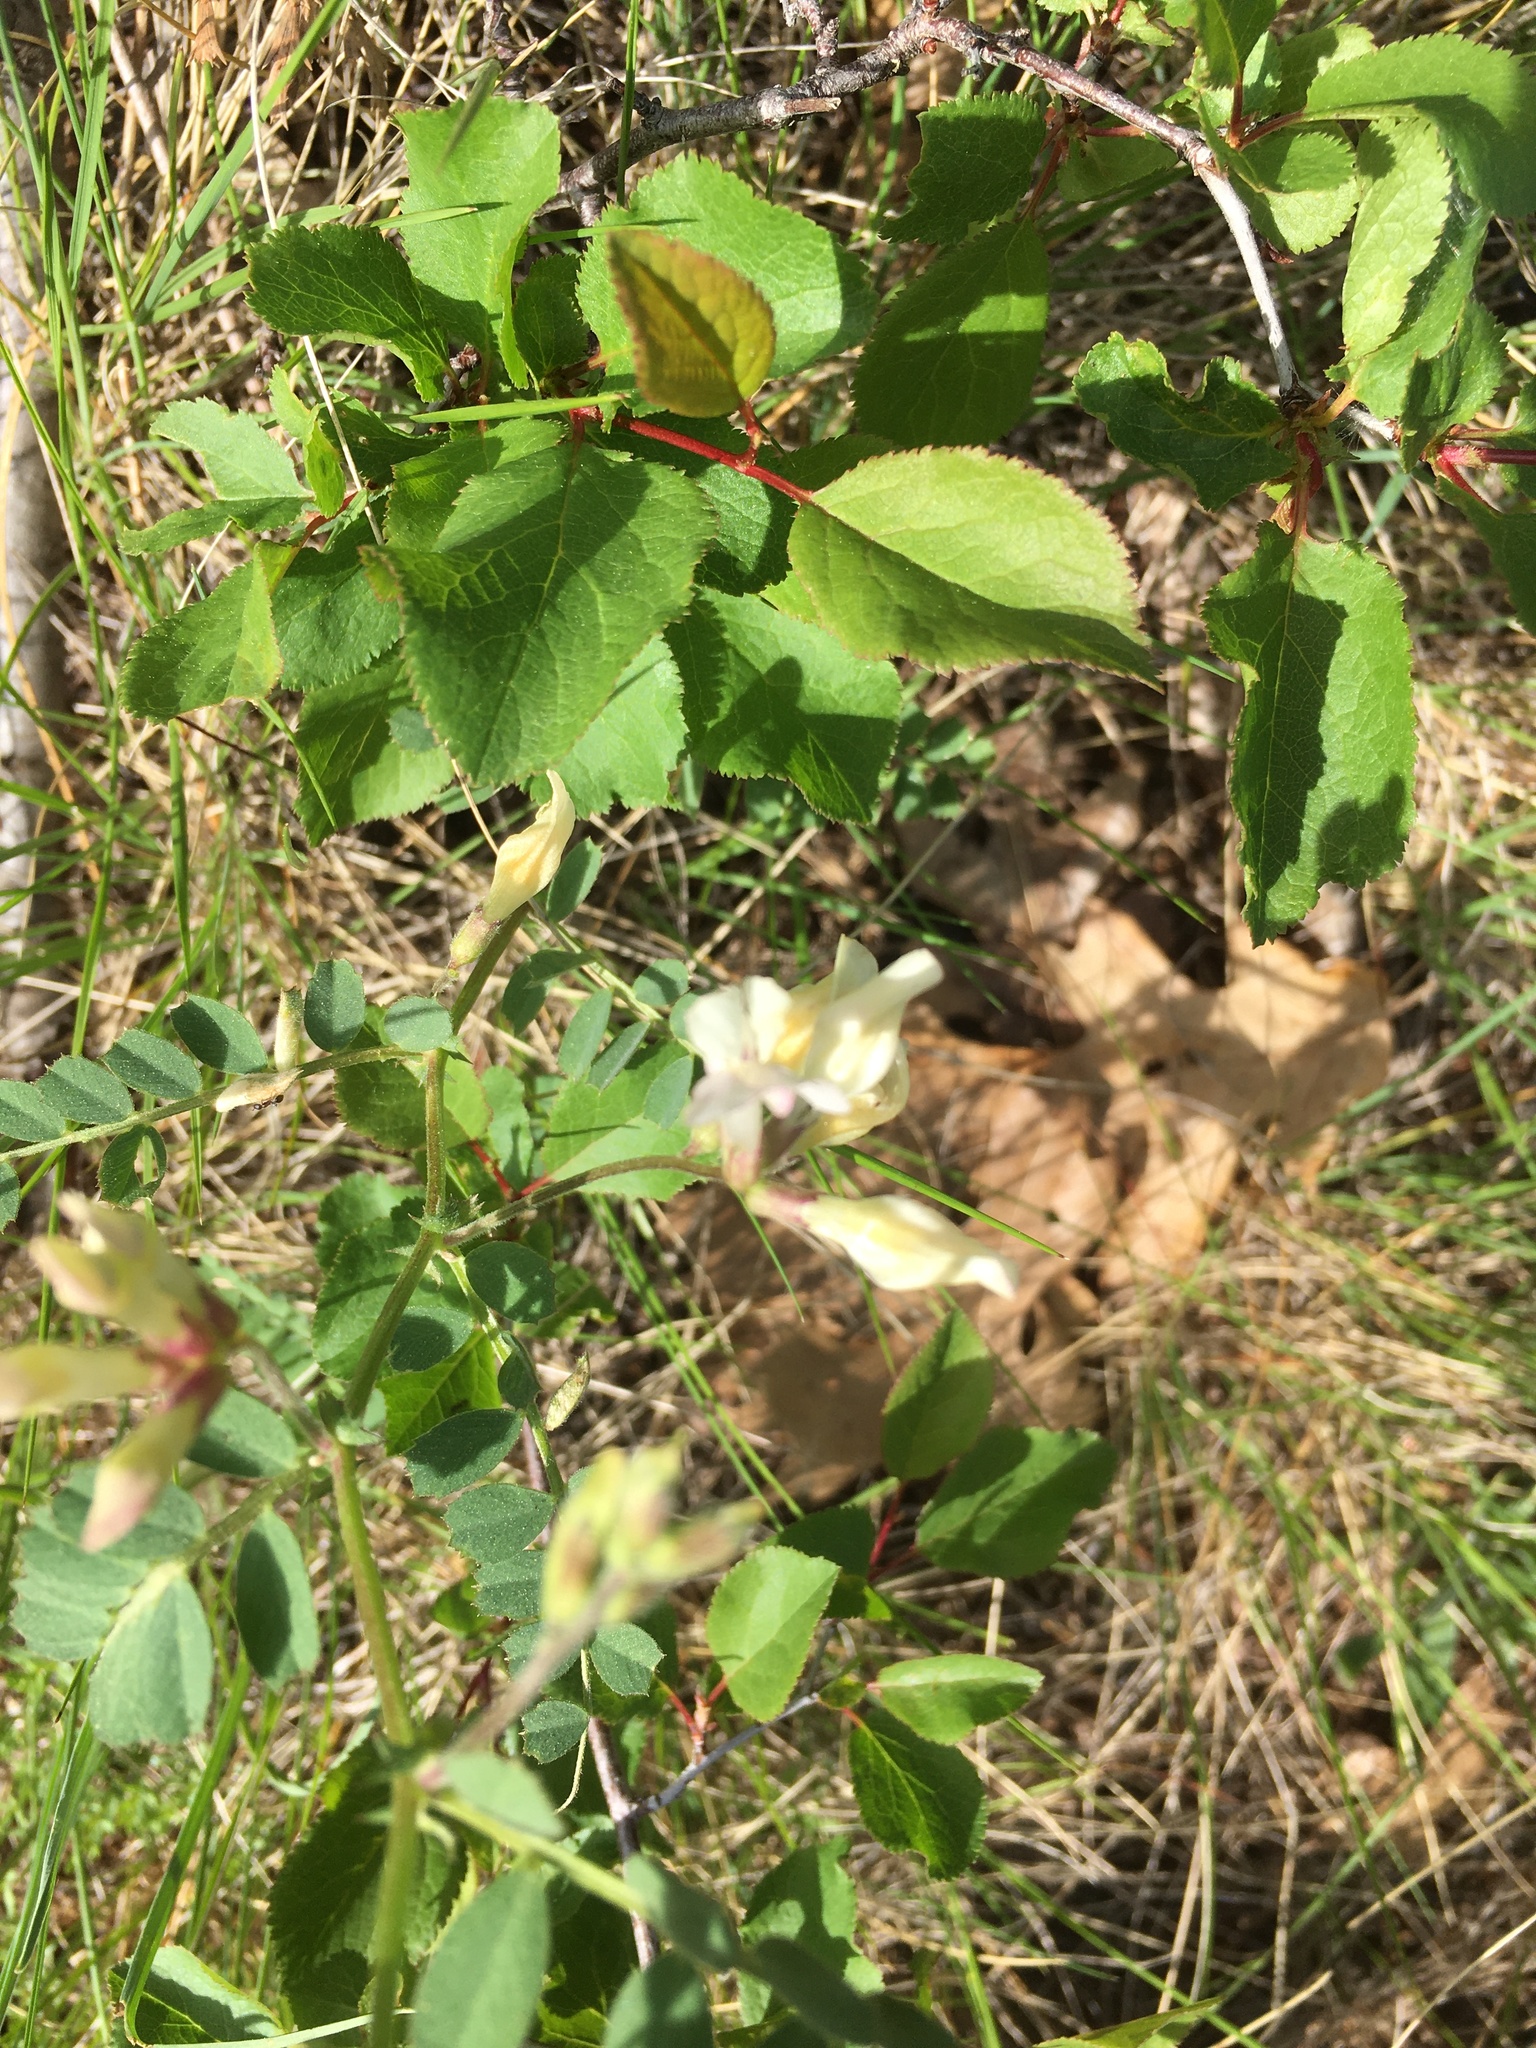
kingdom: Plantae
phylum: Tracheophyta
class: Magnoliopsida
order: Fabales
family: Fabaceae
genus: Vicia
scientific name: Vicia americana
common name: American vetch
